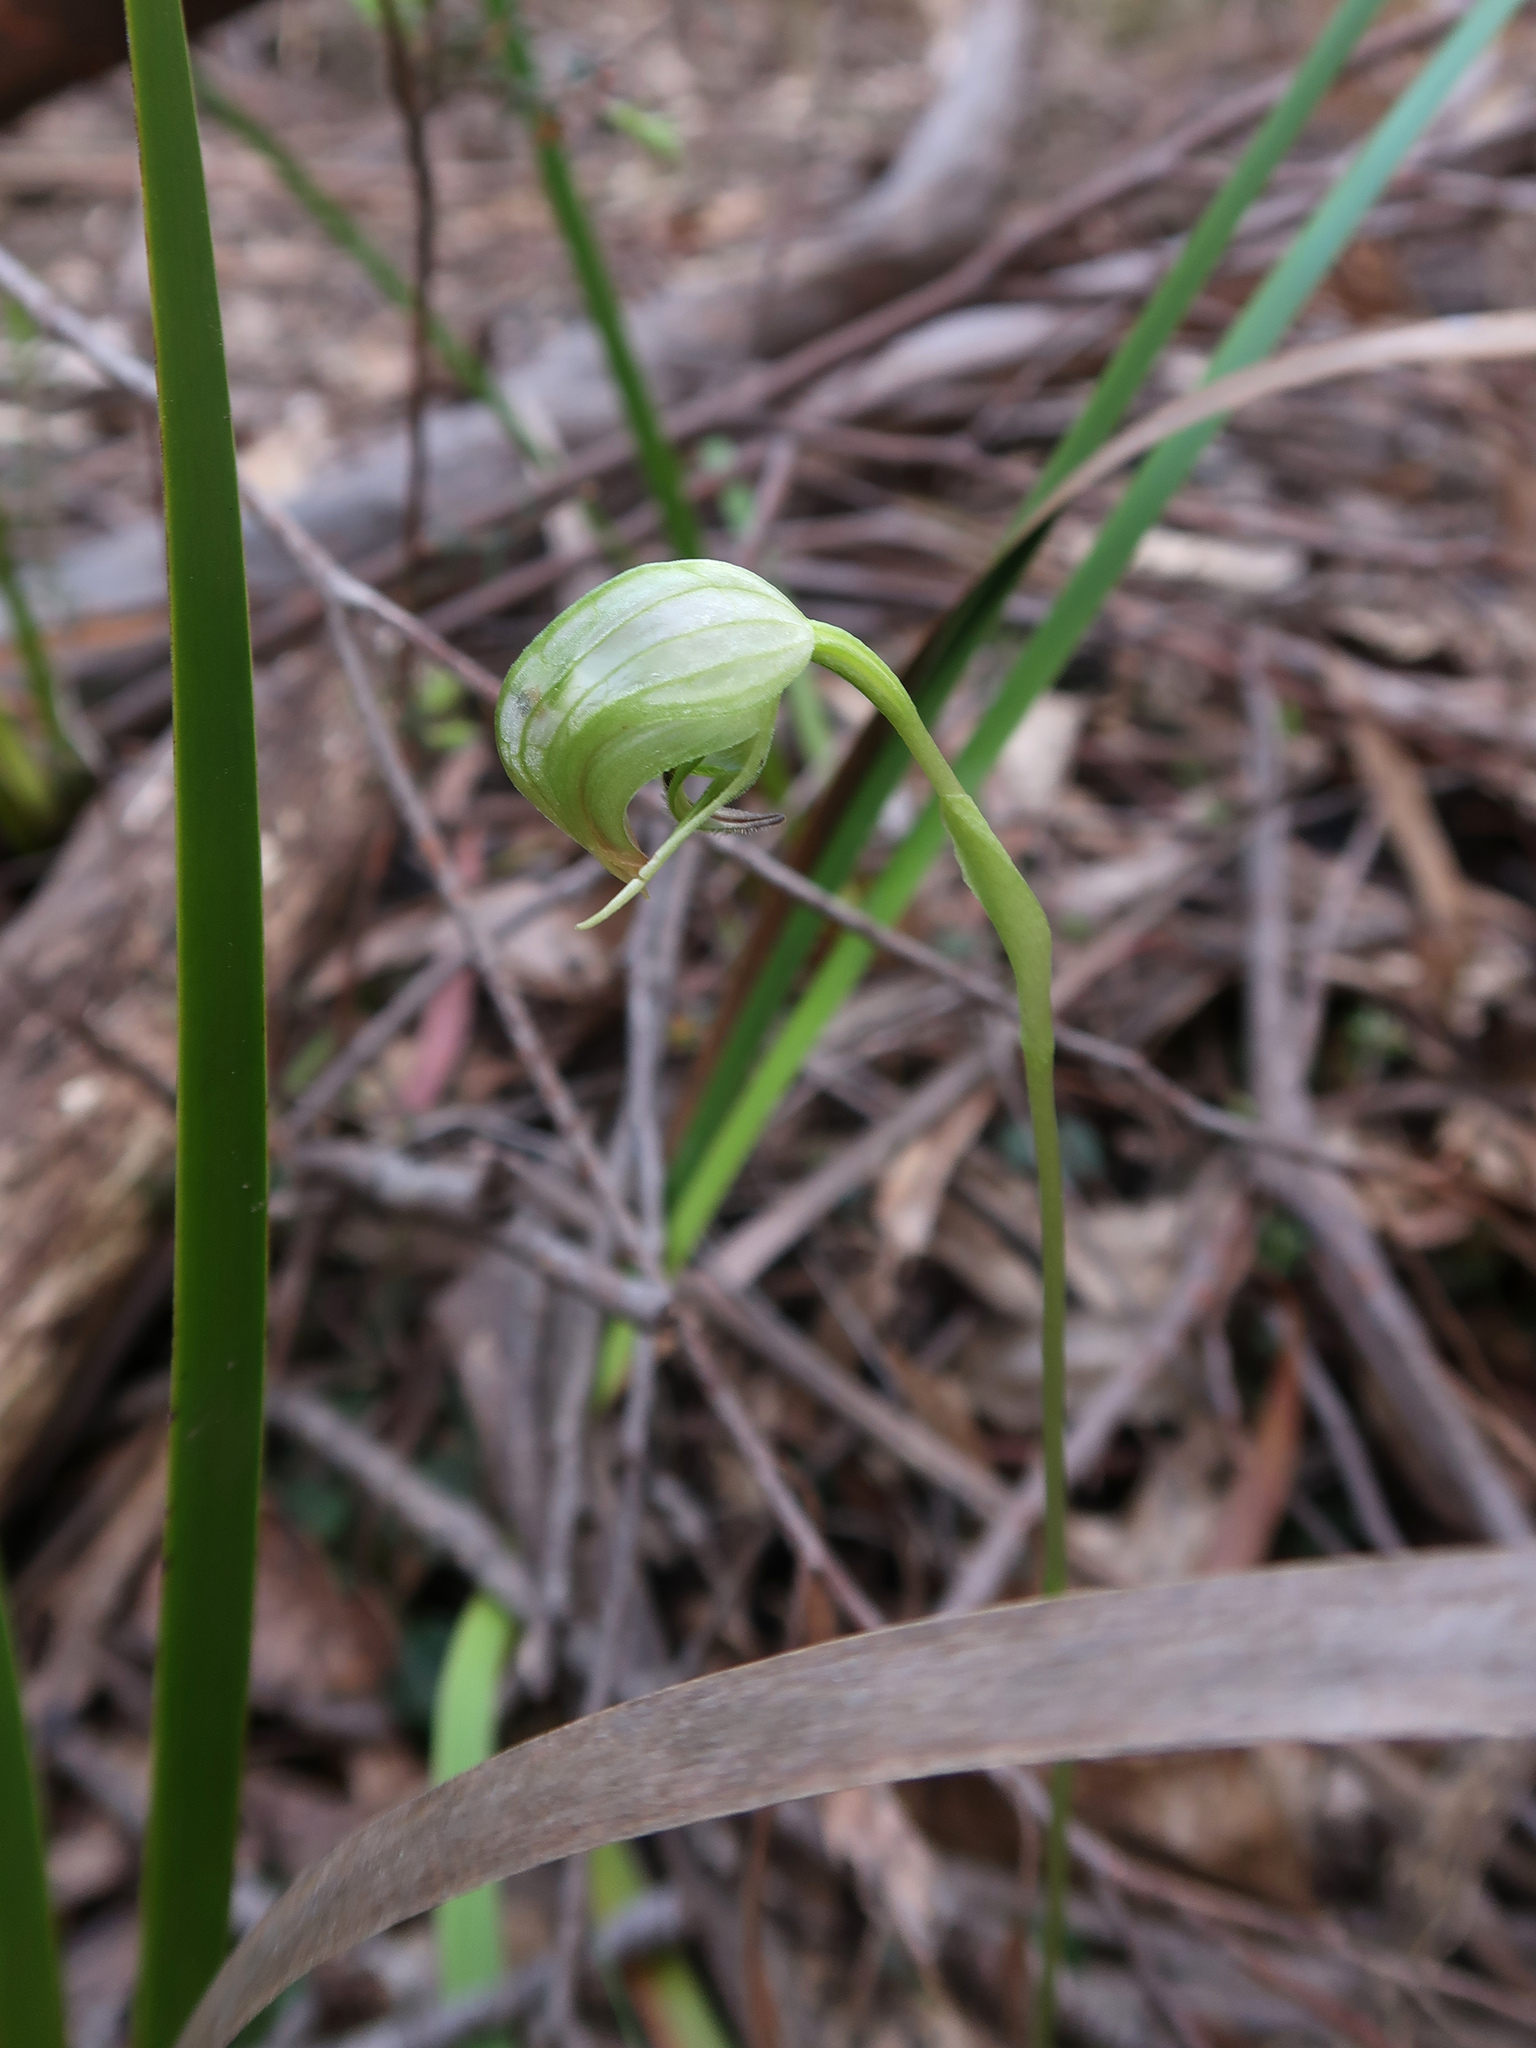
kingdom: Plantae
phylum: Tracheophyta
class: Liliopsida
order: Asparagales
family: Orchidaceae
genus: Pterostylis
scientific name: Pterostylis nutans
